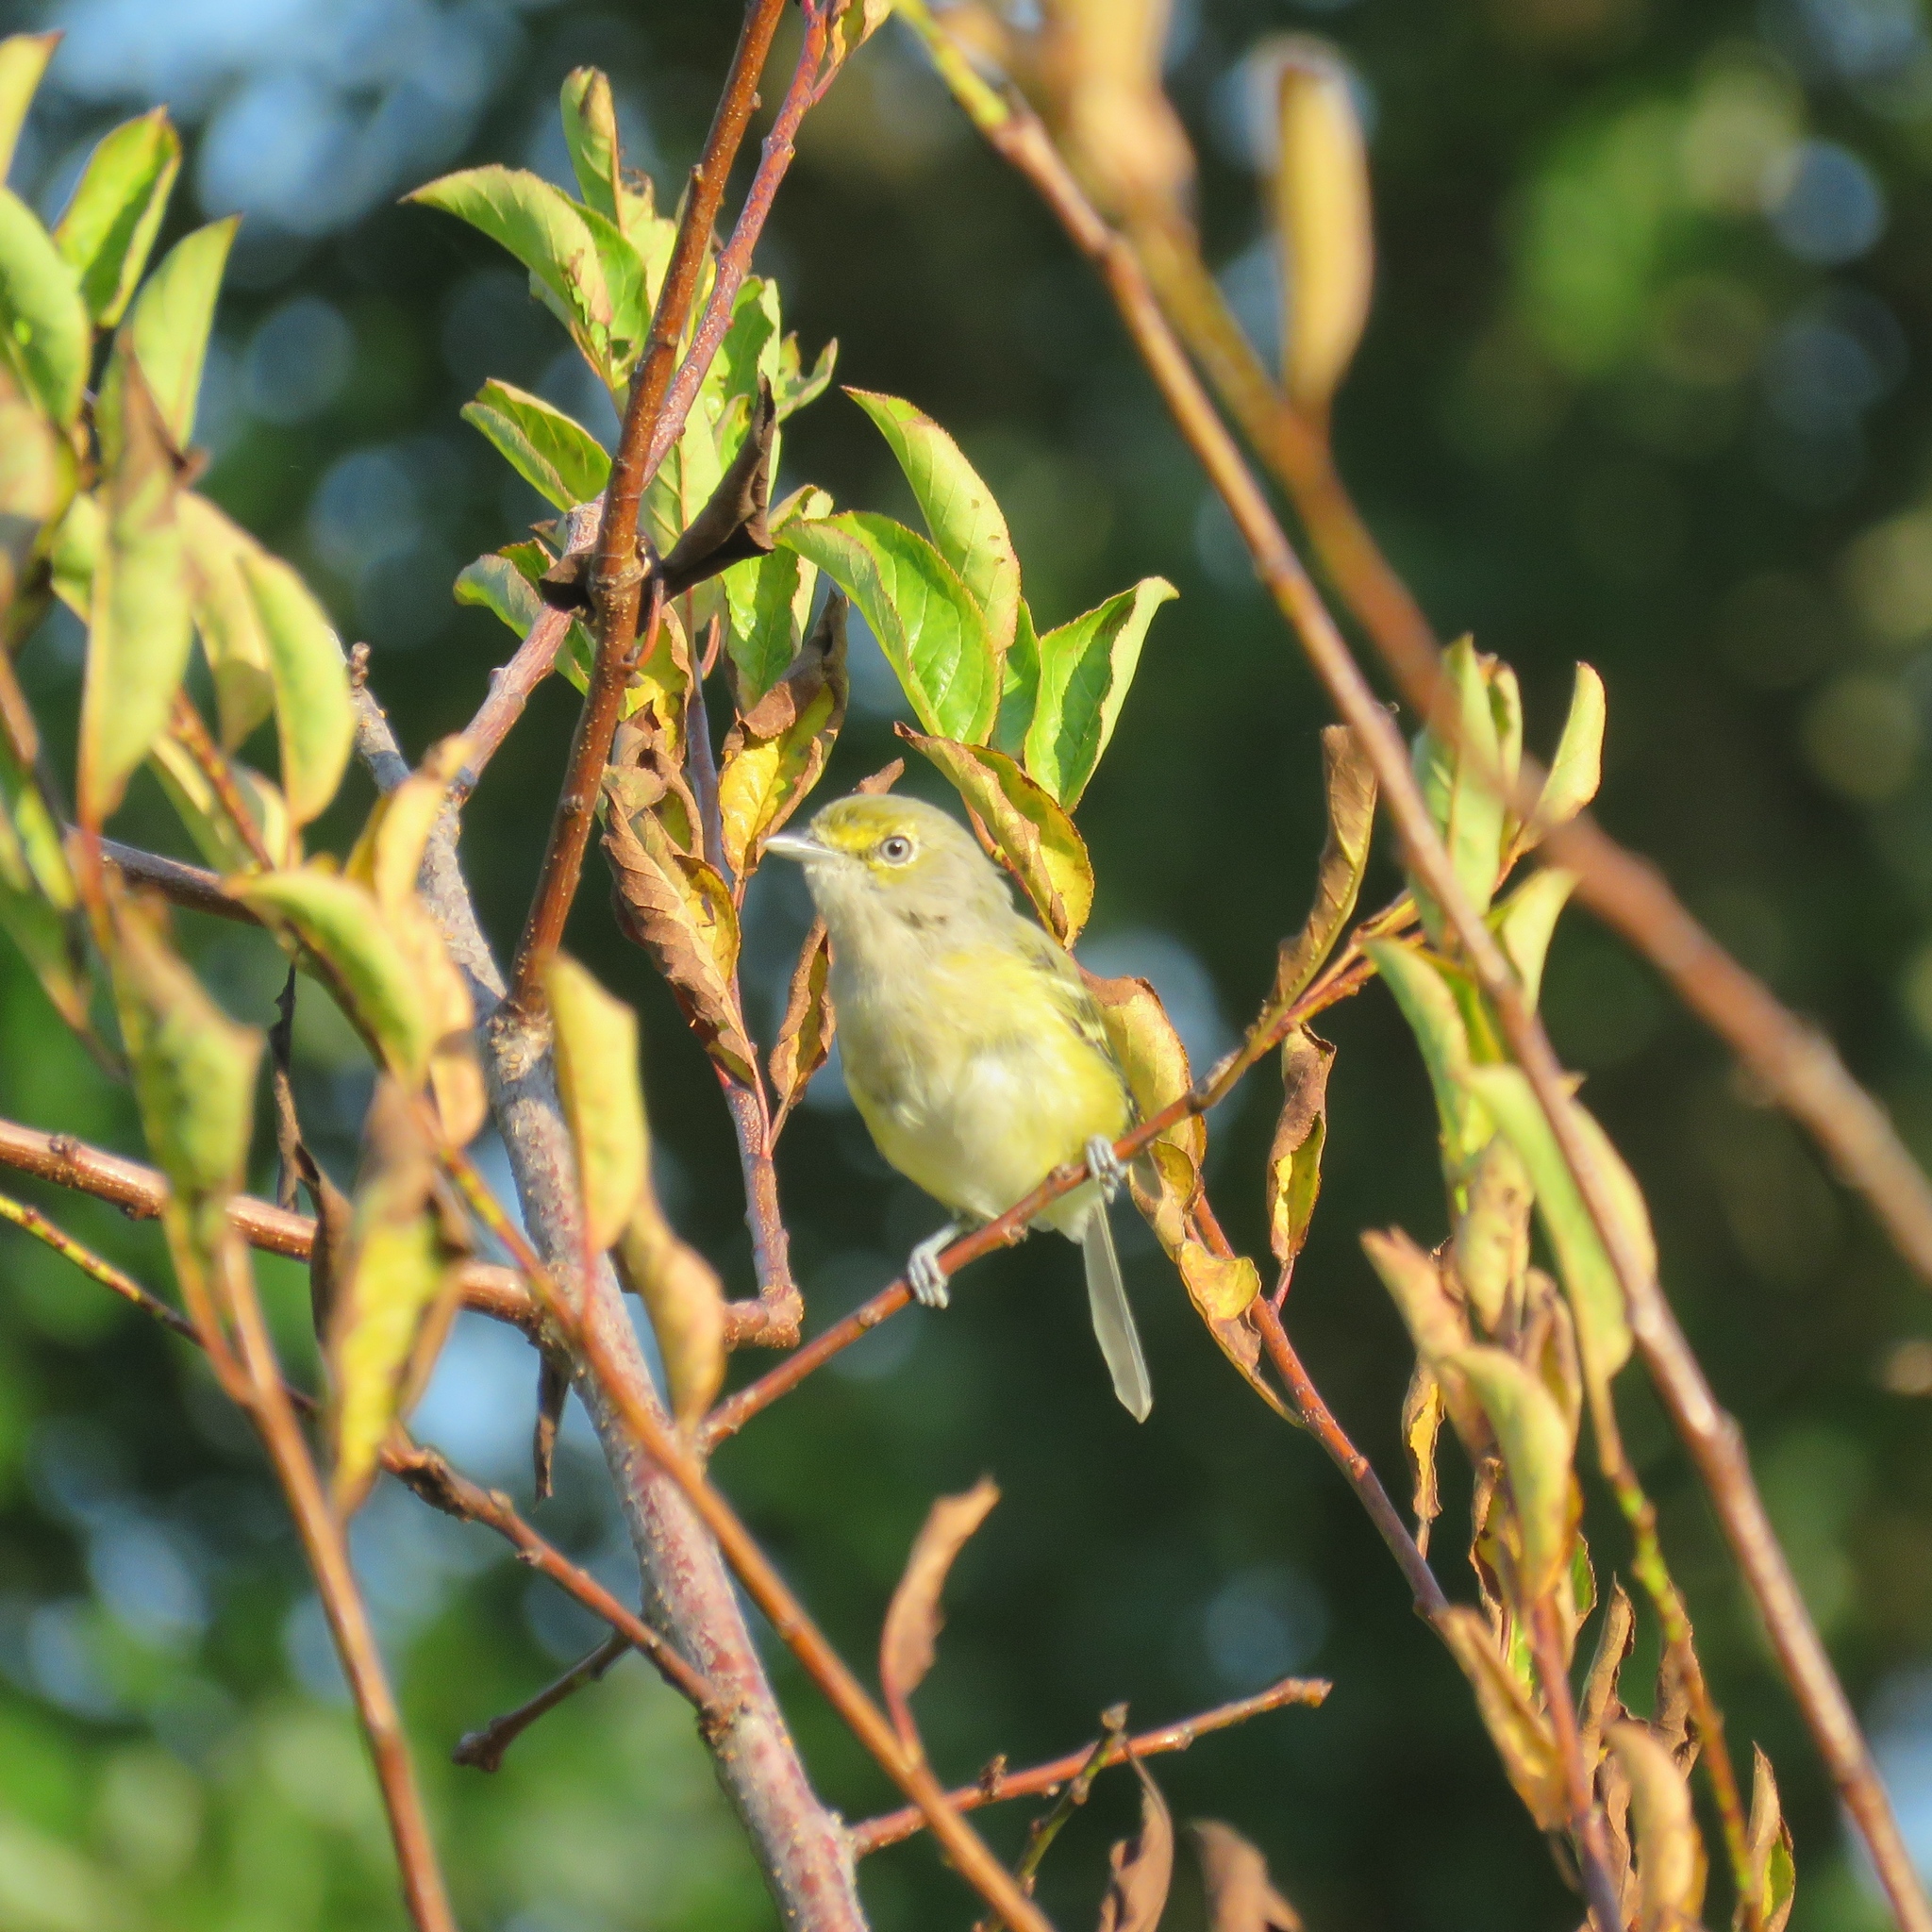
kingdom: Animalia
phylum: Chordata
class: Aves
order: Passeriformes
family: Vireonidae
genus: Vireo
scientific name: Vireo griseus
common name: White-eyed vireo
